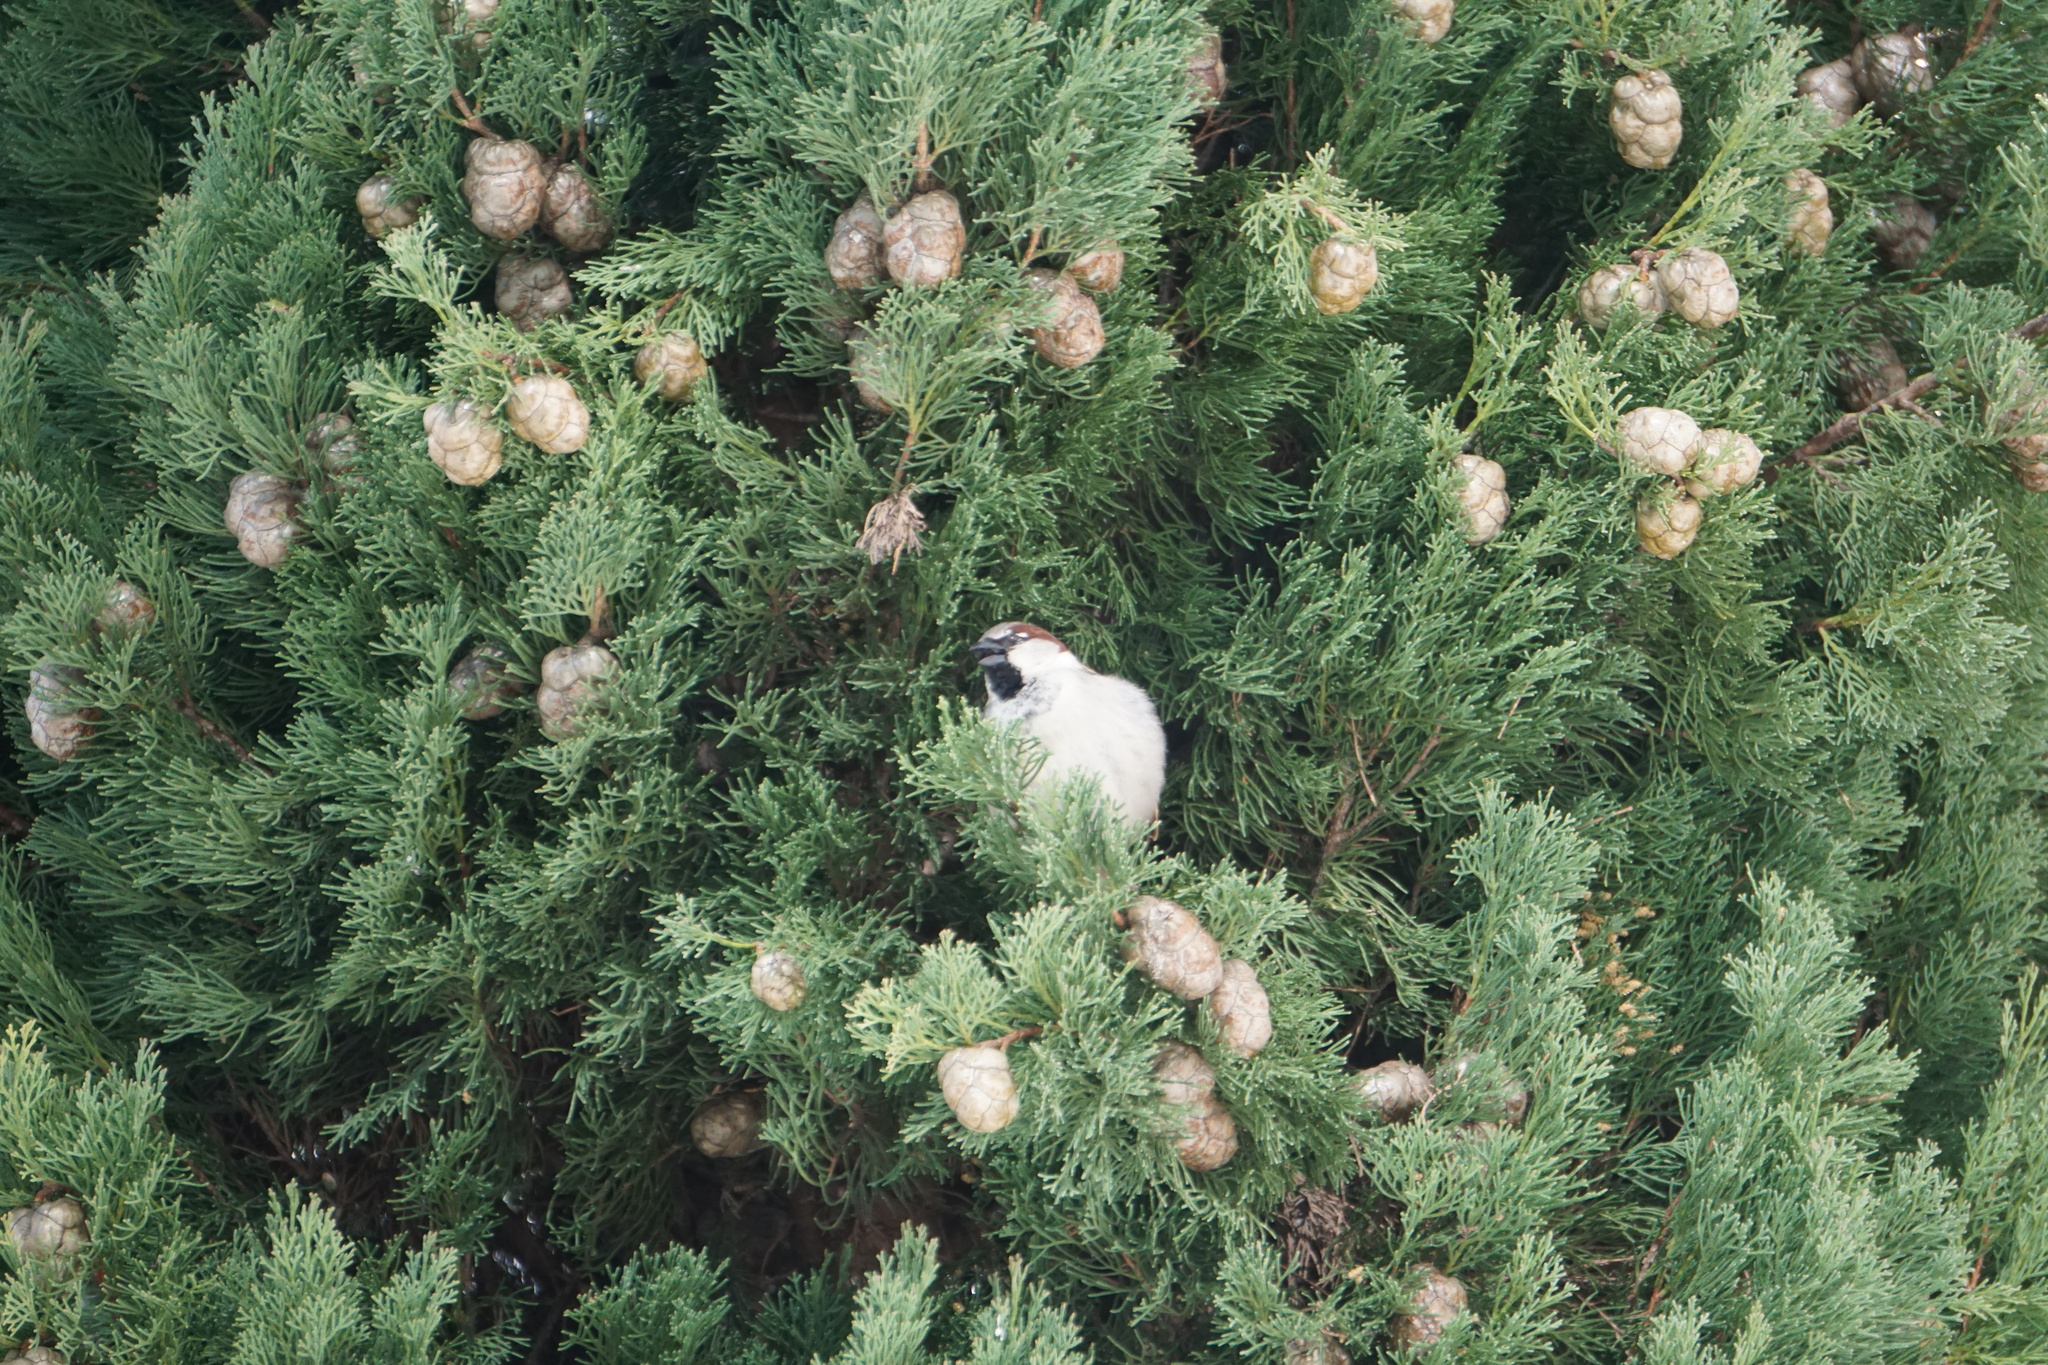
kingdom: Animalia
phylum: Chordata
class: Aves
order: Passeriformes
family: Passeridae
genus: Passer
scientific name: Passer domesticus
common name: House sparrow
